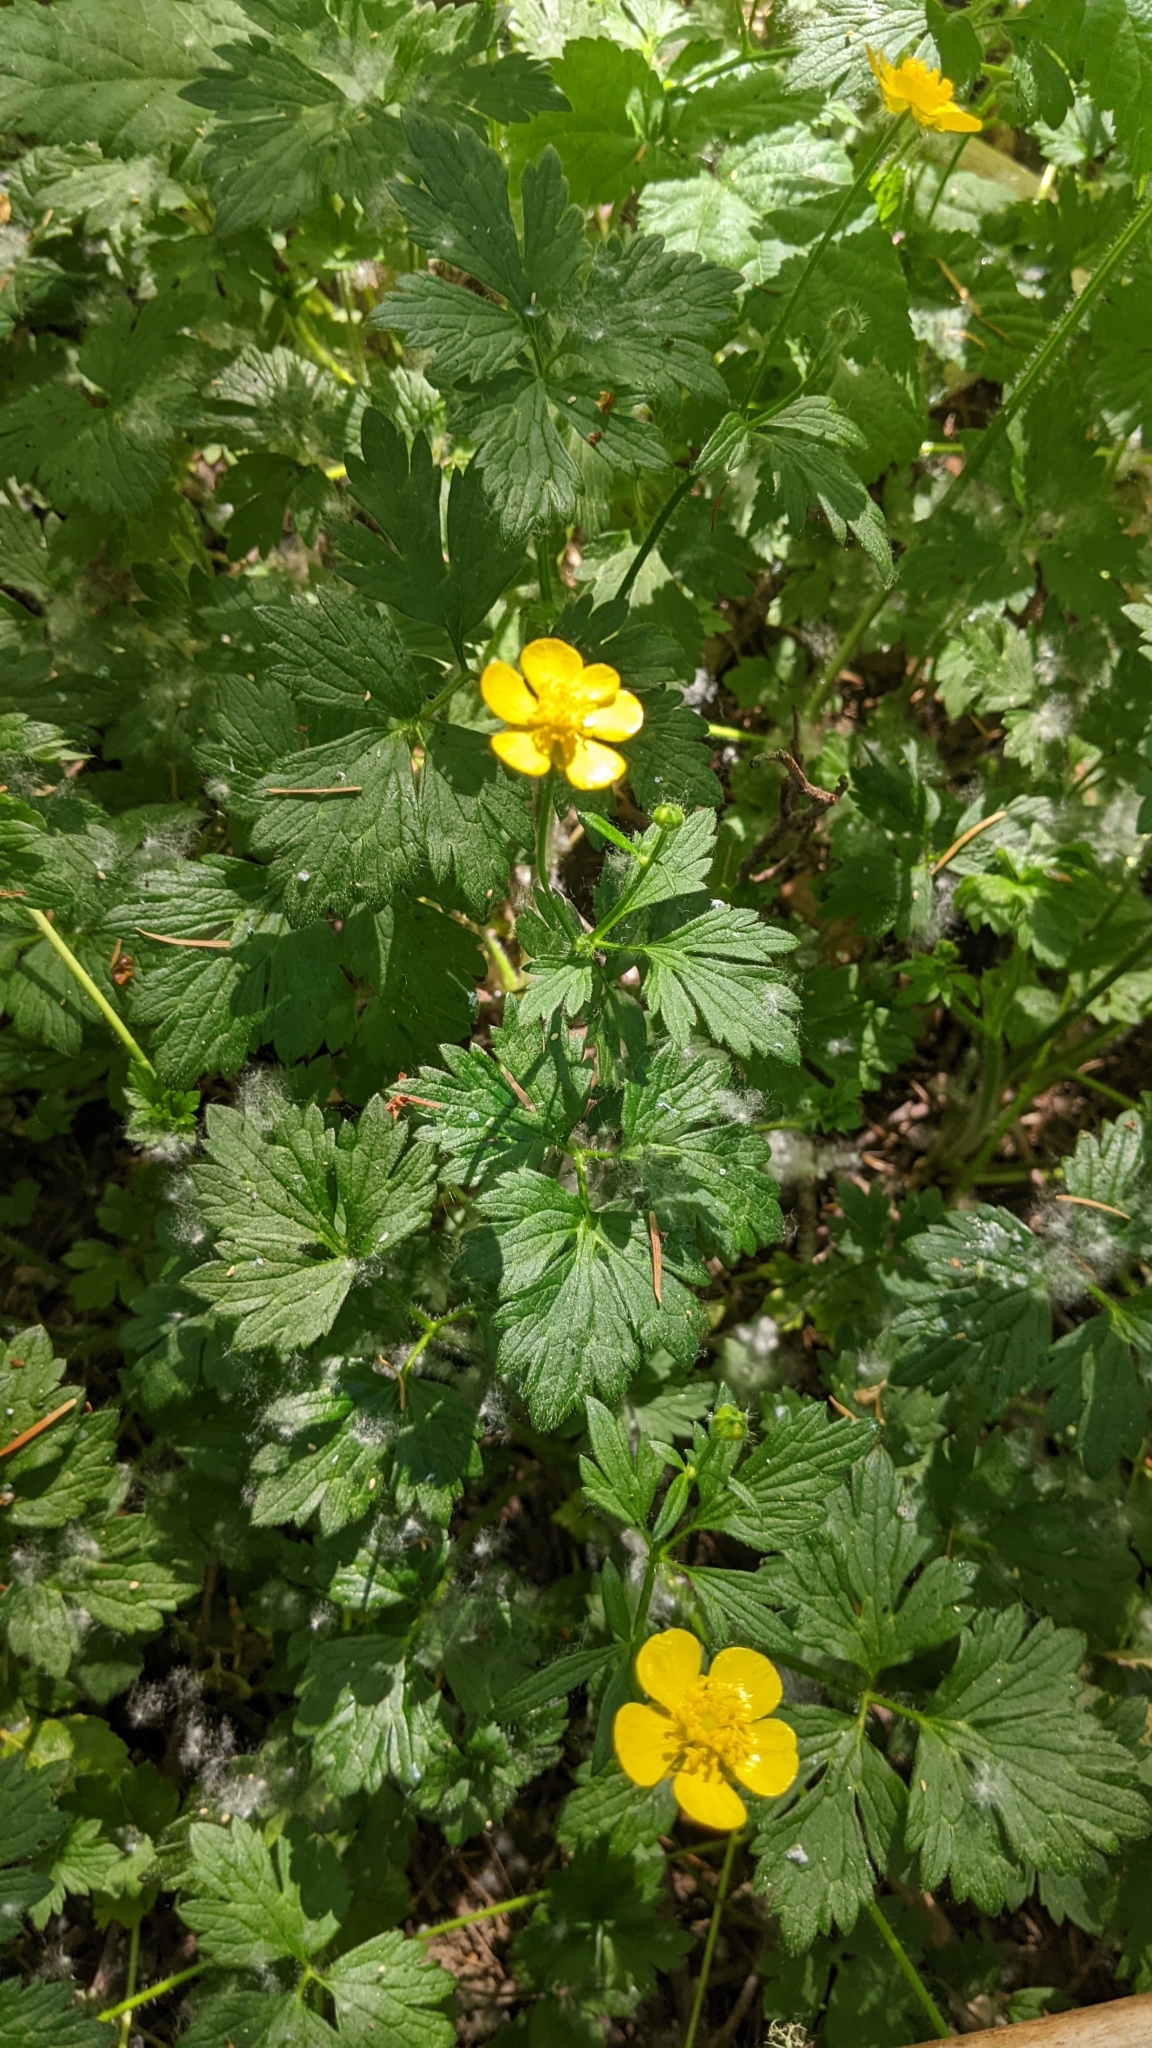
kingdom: Plantae
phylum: Tracheophyta
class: Magnoliopsida
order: Ranunculales
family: Ranunculaceae
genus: Ranunculus
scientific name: Ranunculus repens
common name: Creeping buttercup
